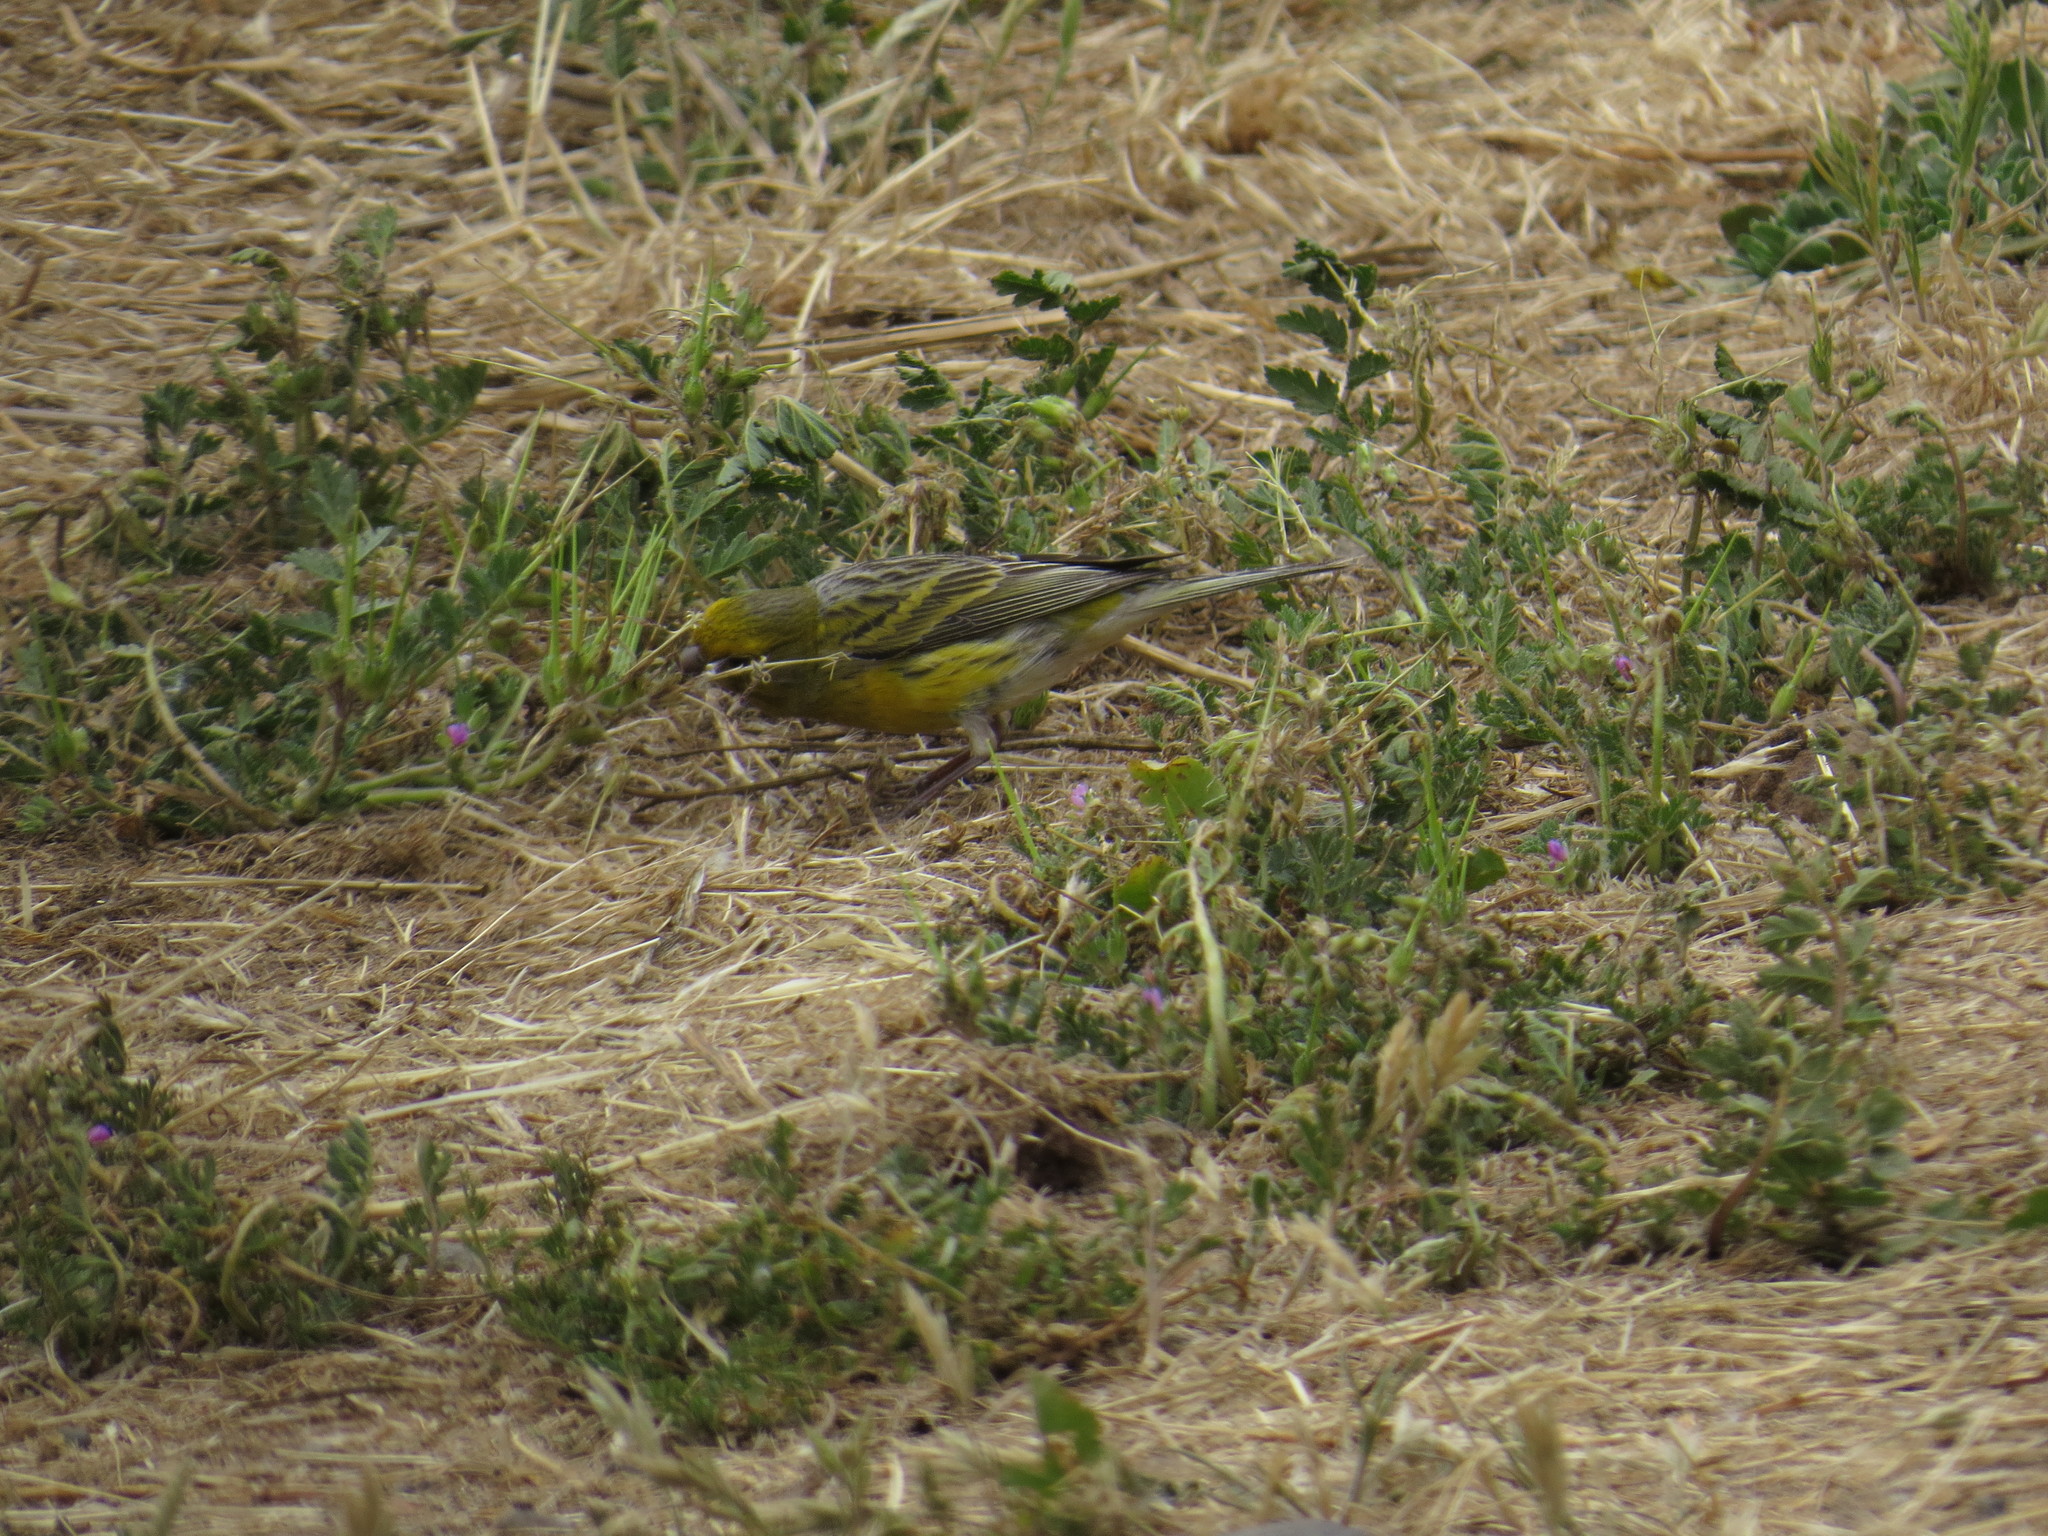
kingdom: Animalia
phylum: Chordata
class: Aves
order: Passeriformes
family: Fringillidae
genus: Serinus
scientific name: Serinus canaria
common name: Atlantic canary
